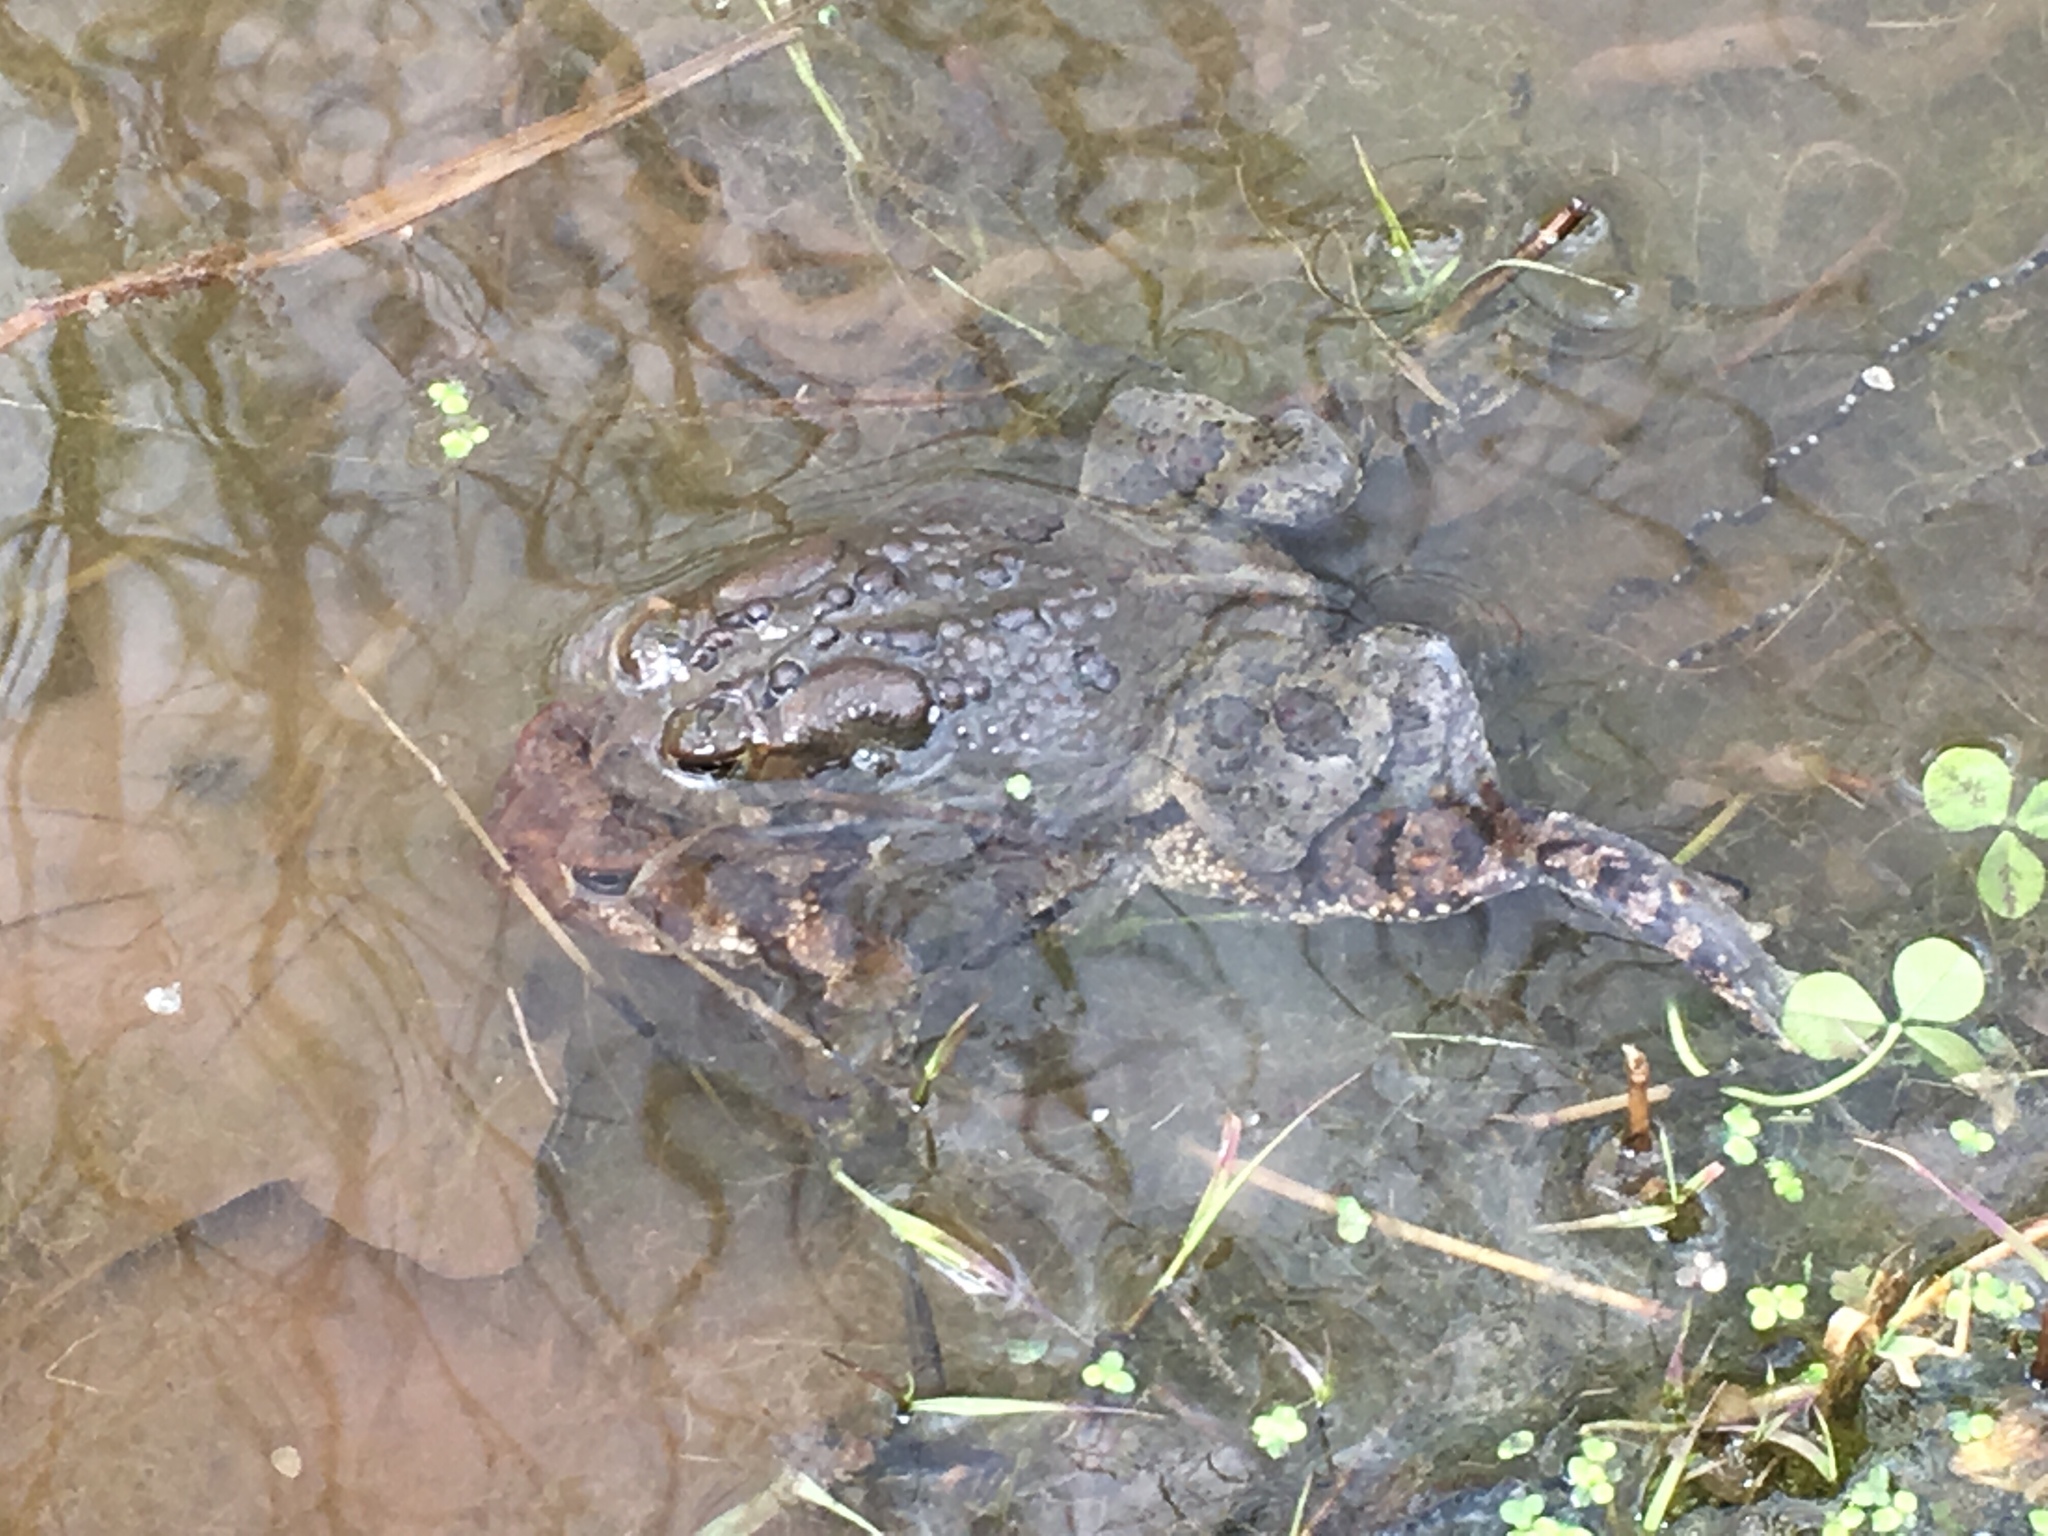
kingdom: Animalia
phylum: Chordata
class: Amphibia
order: Anura
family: Bufonidae
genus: Anaxyrus
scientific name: Anaxyrus americanus
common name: American toad
